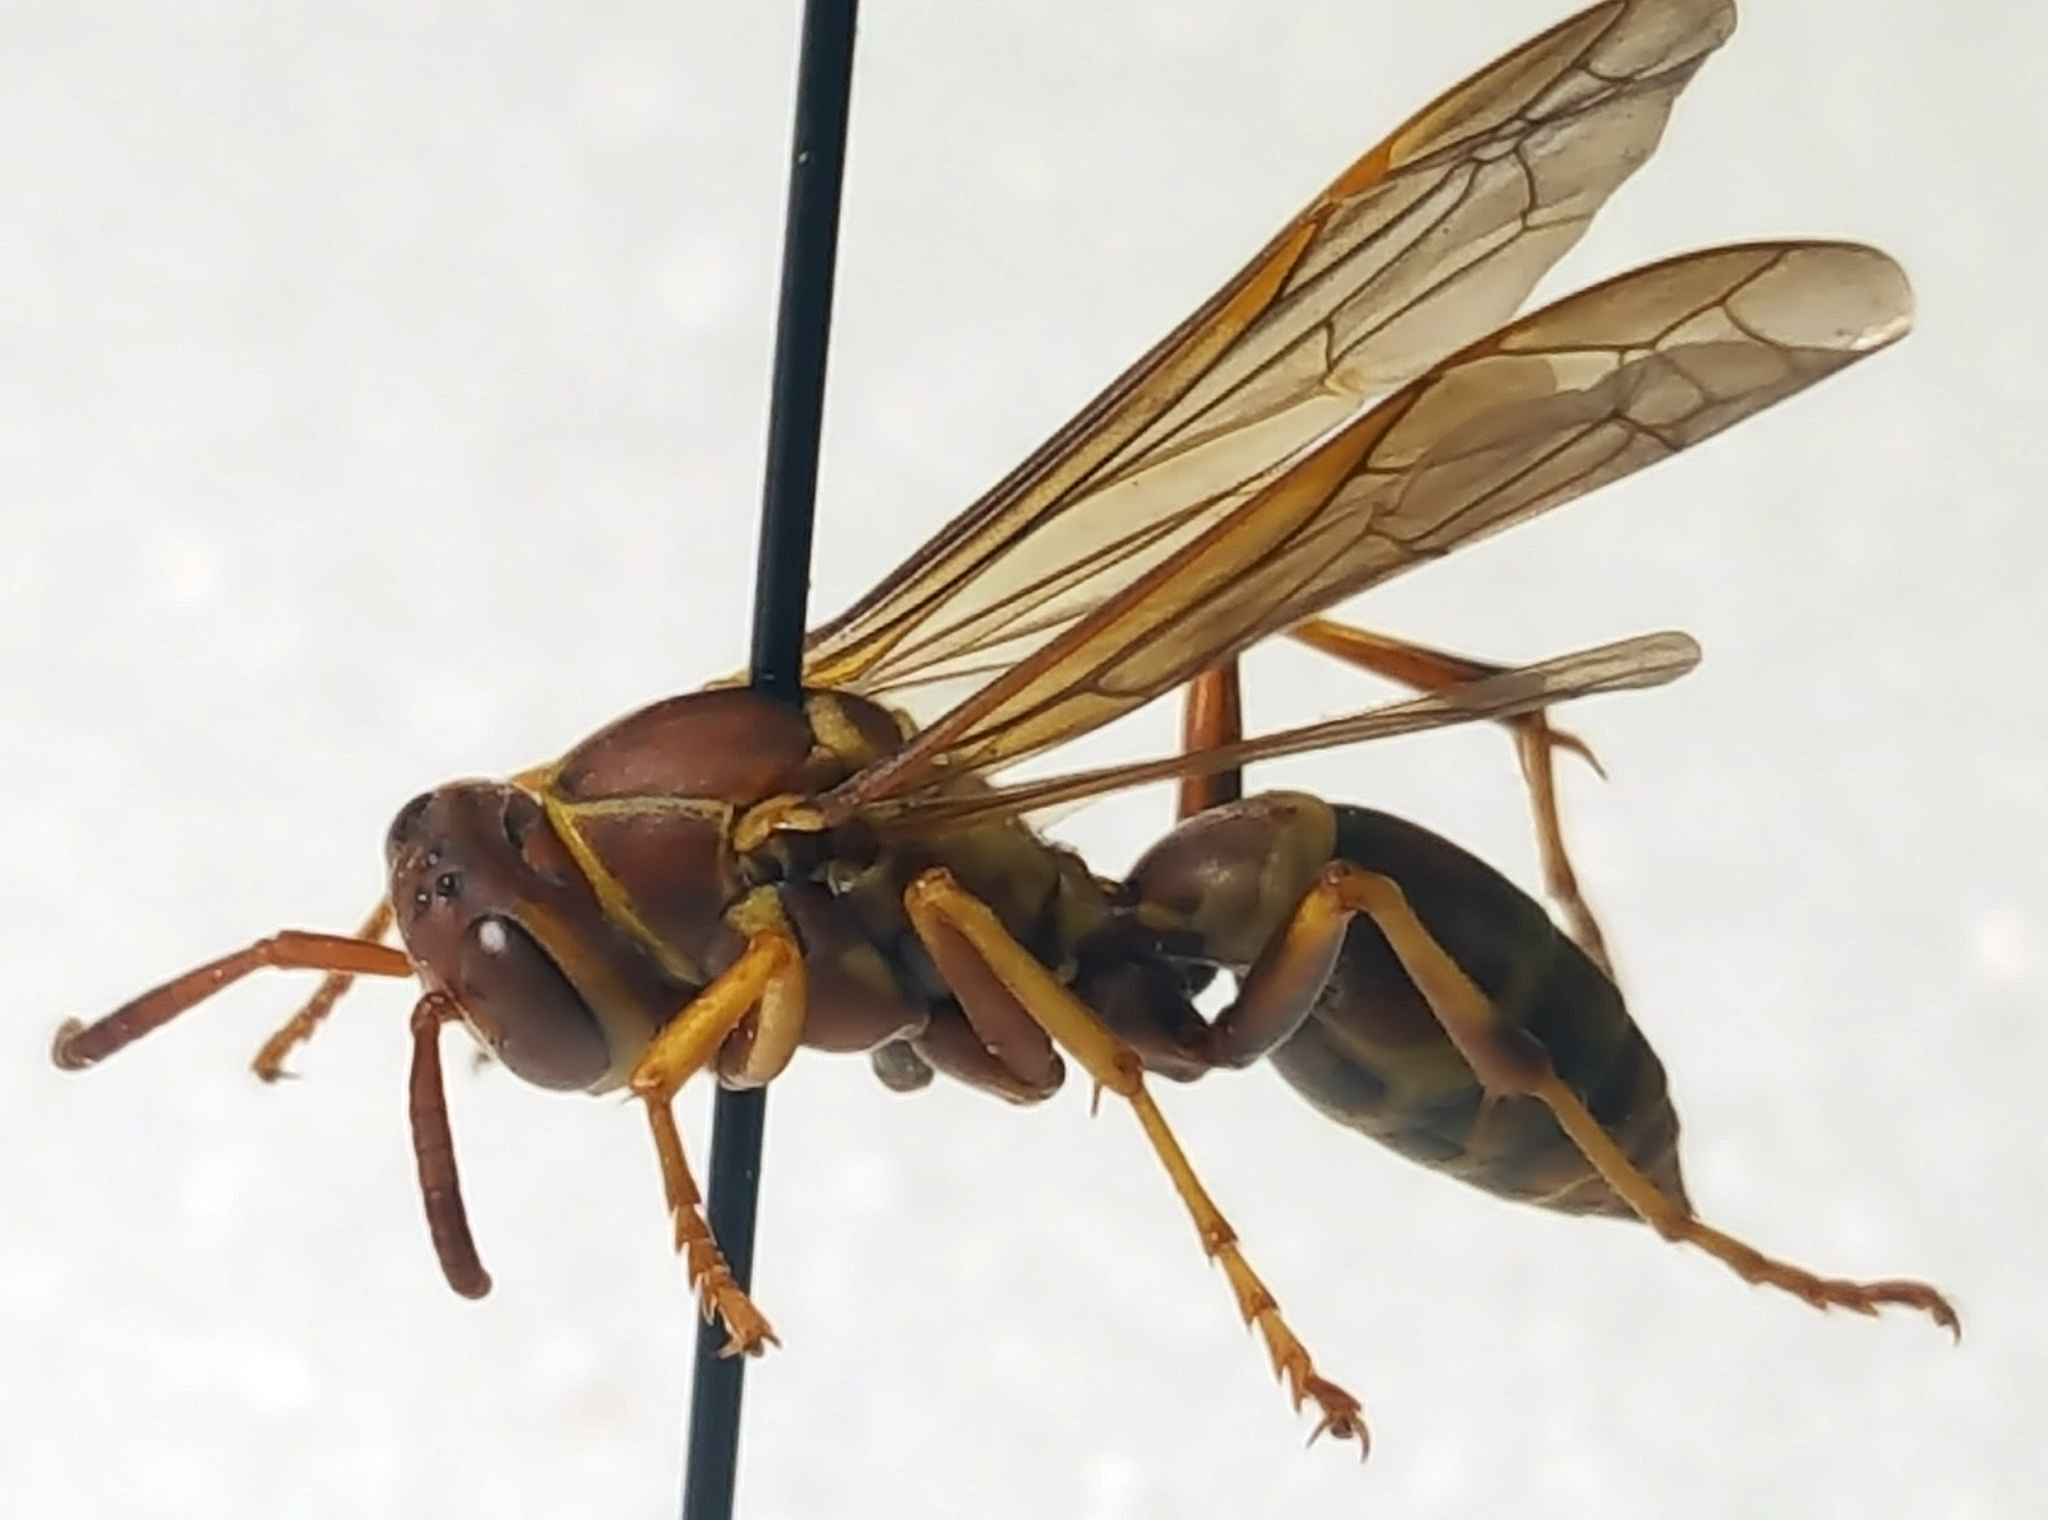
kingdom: Animalia
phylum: Arthropoda
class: Insecta
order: Hymenoptera
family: Eumenidae
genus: Polistes
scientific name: Polistes dorsalis
